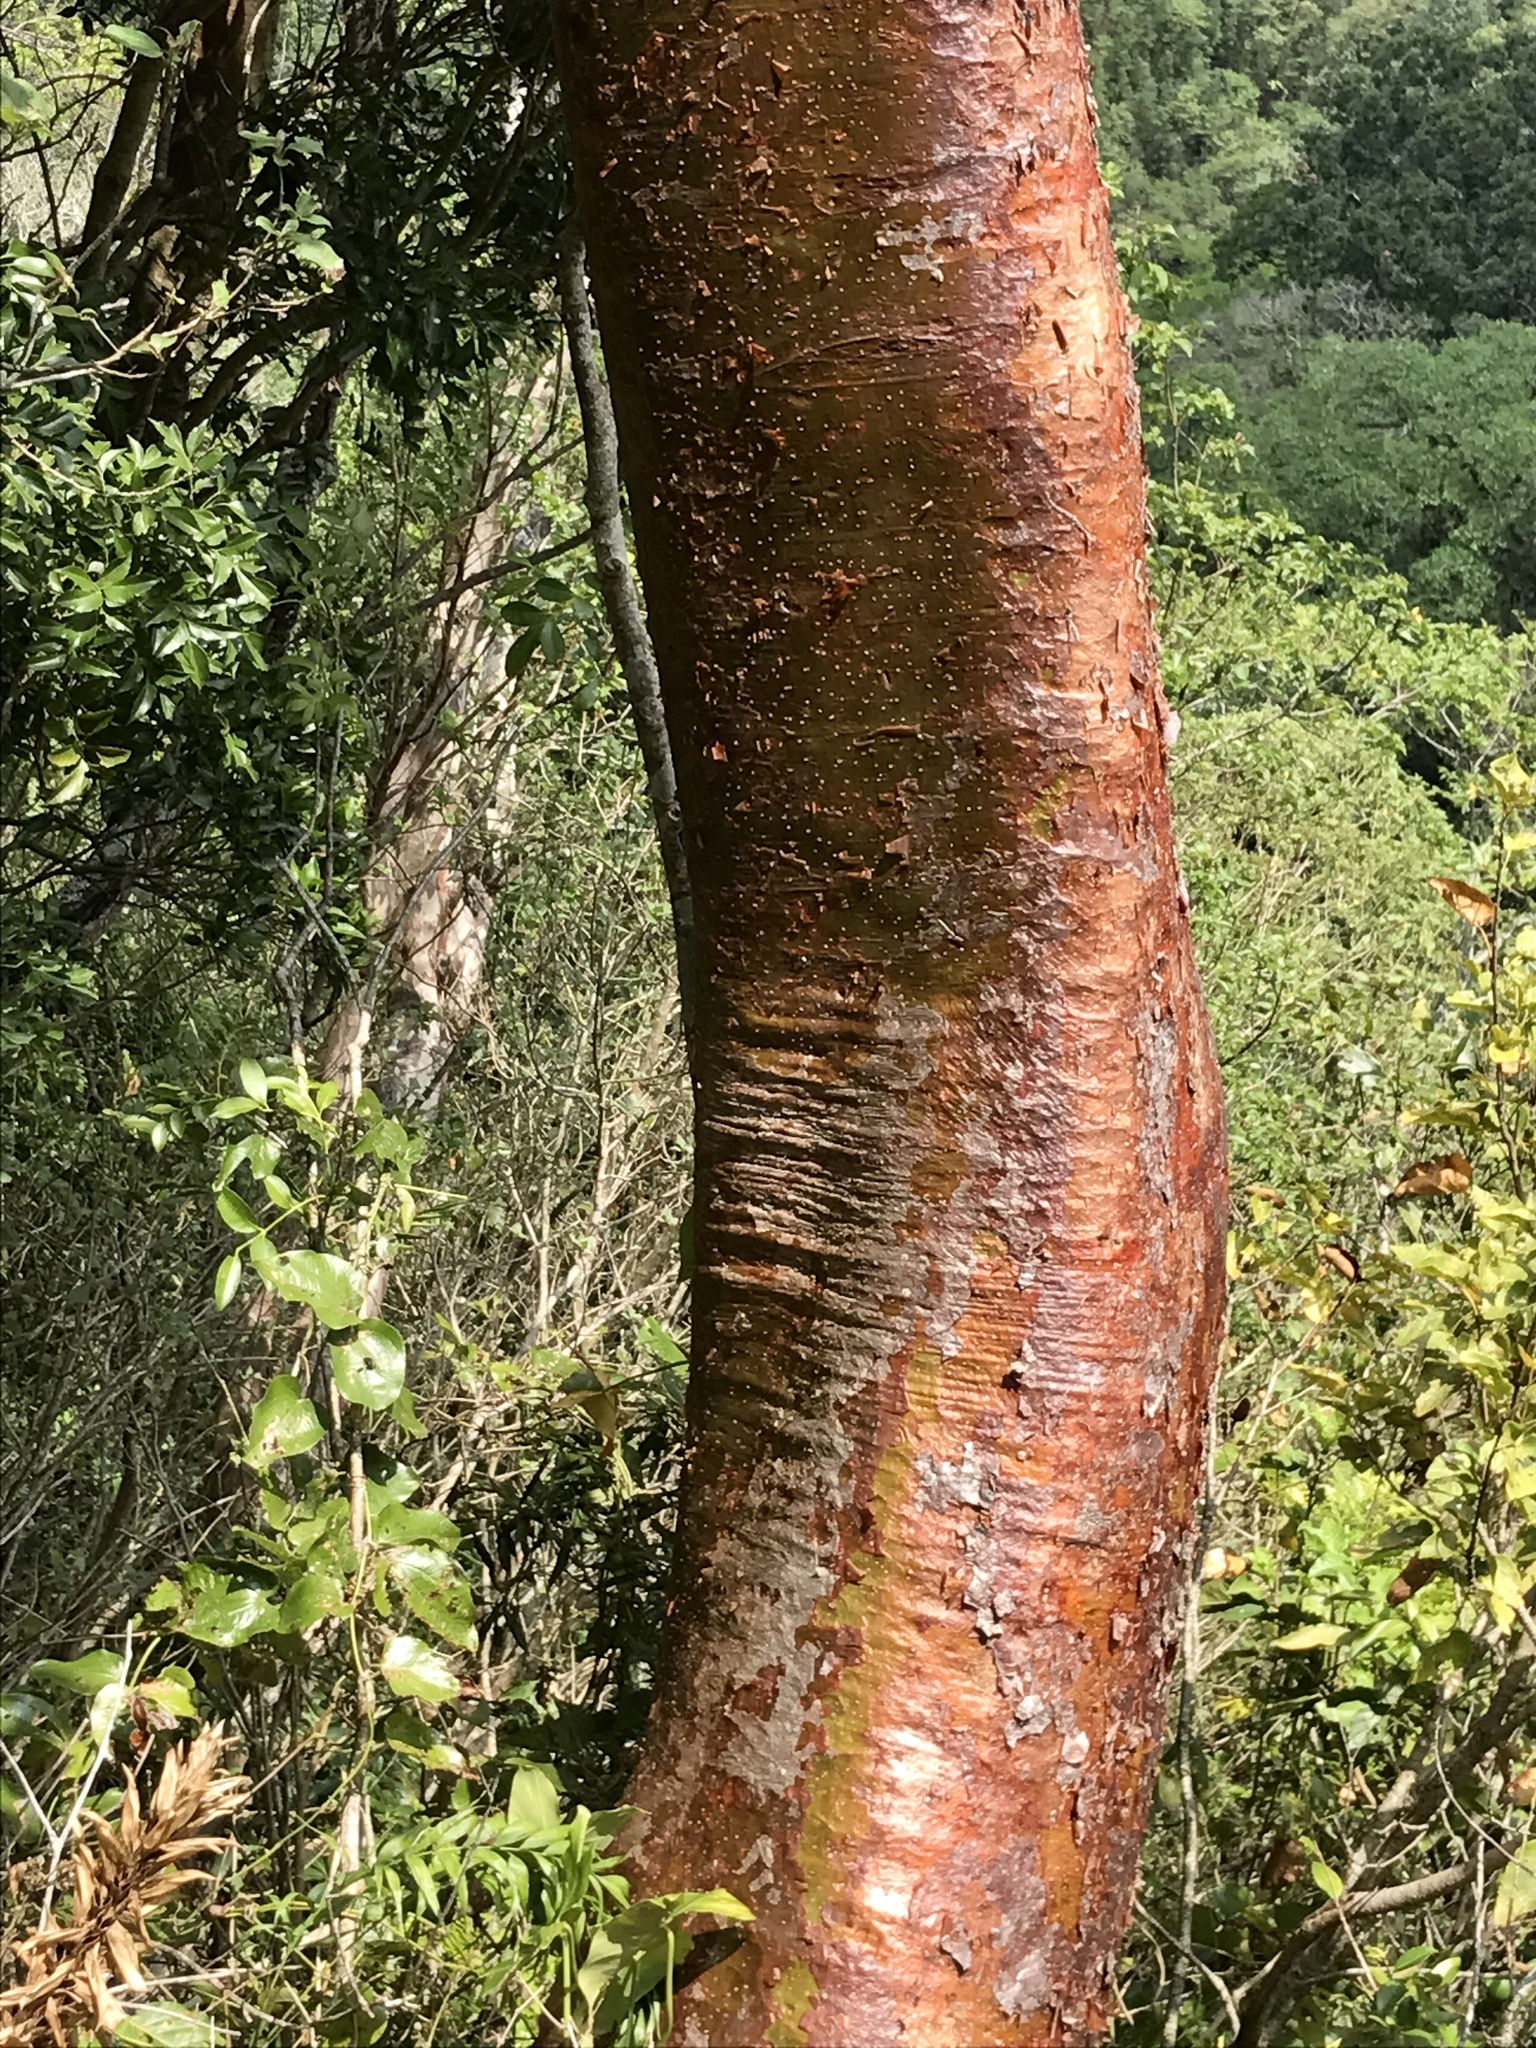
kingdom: Plantae
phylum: Tracheophyta
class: Magnoliopsida
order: Sapindales
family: Burseraceae
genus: Bursera
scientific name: Bursera simaruba
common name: Turpentine tree
